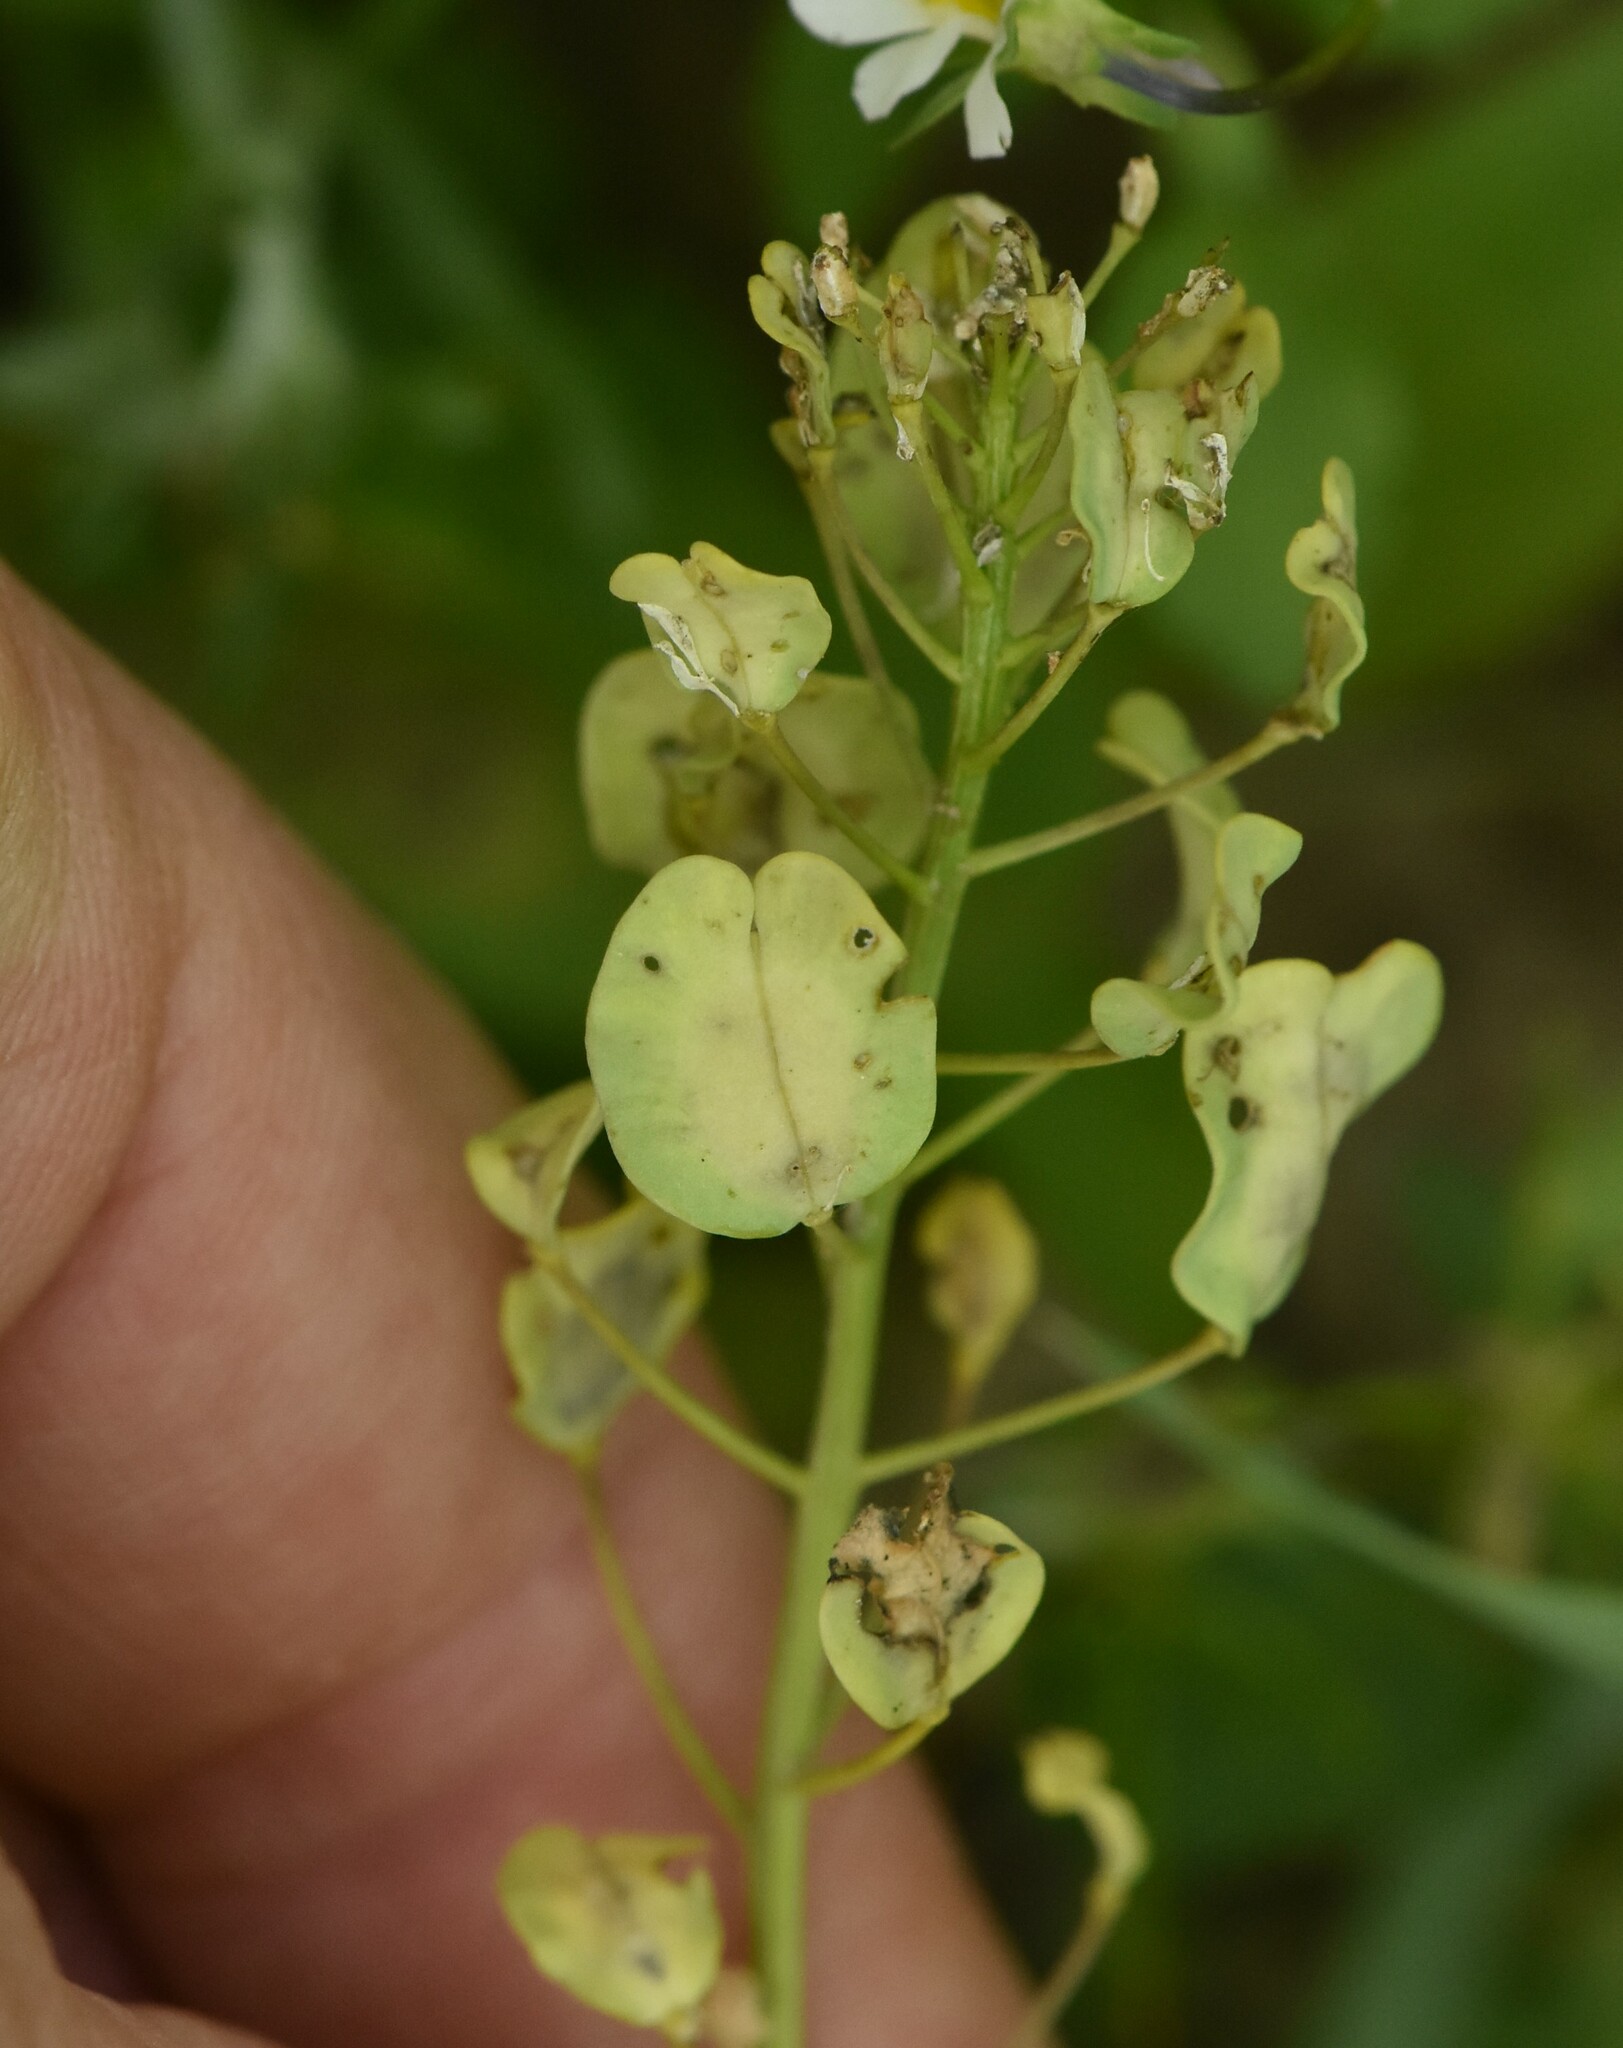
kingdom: Plantae
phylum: Tracheophyta
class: Magnoliopsida
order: Brassicales
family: Brassicaceae
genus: Thlaspi
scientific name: Thlaspi arvense
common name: Field pennycress
